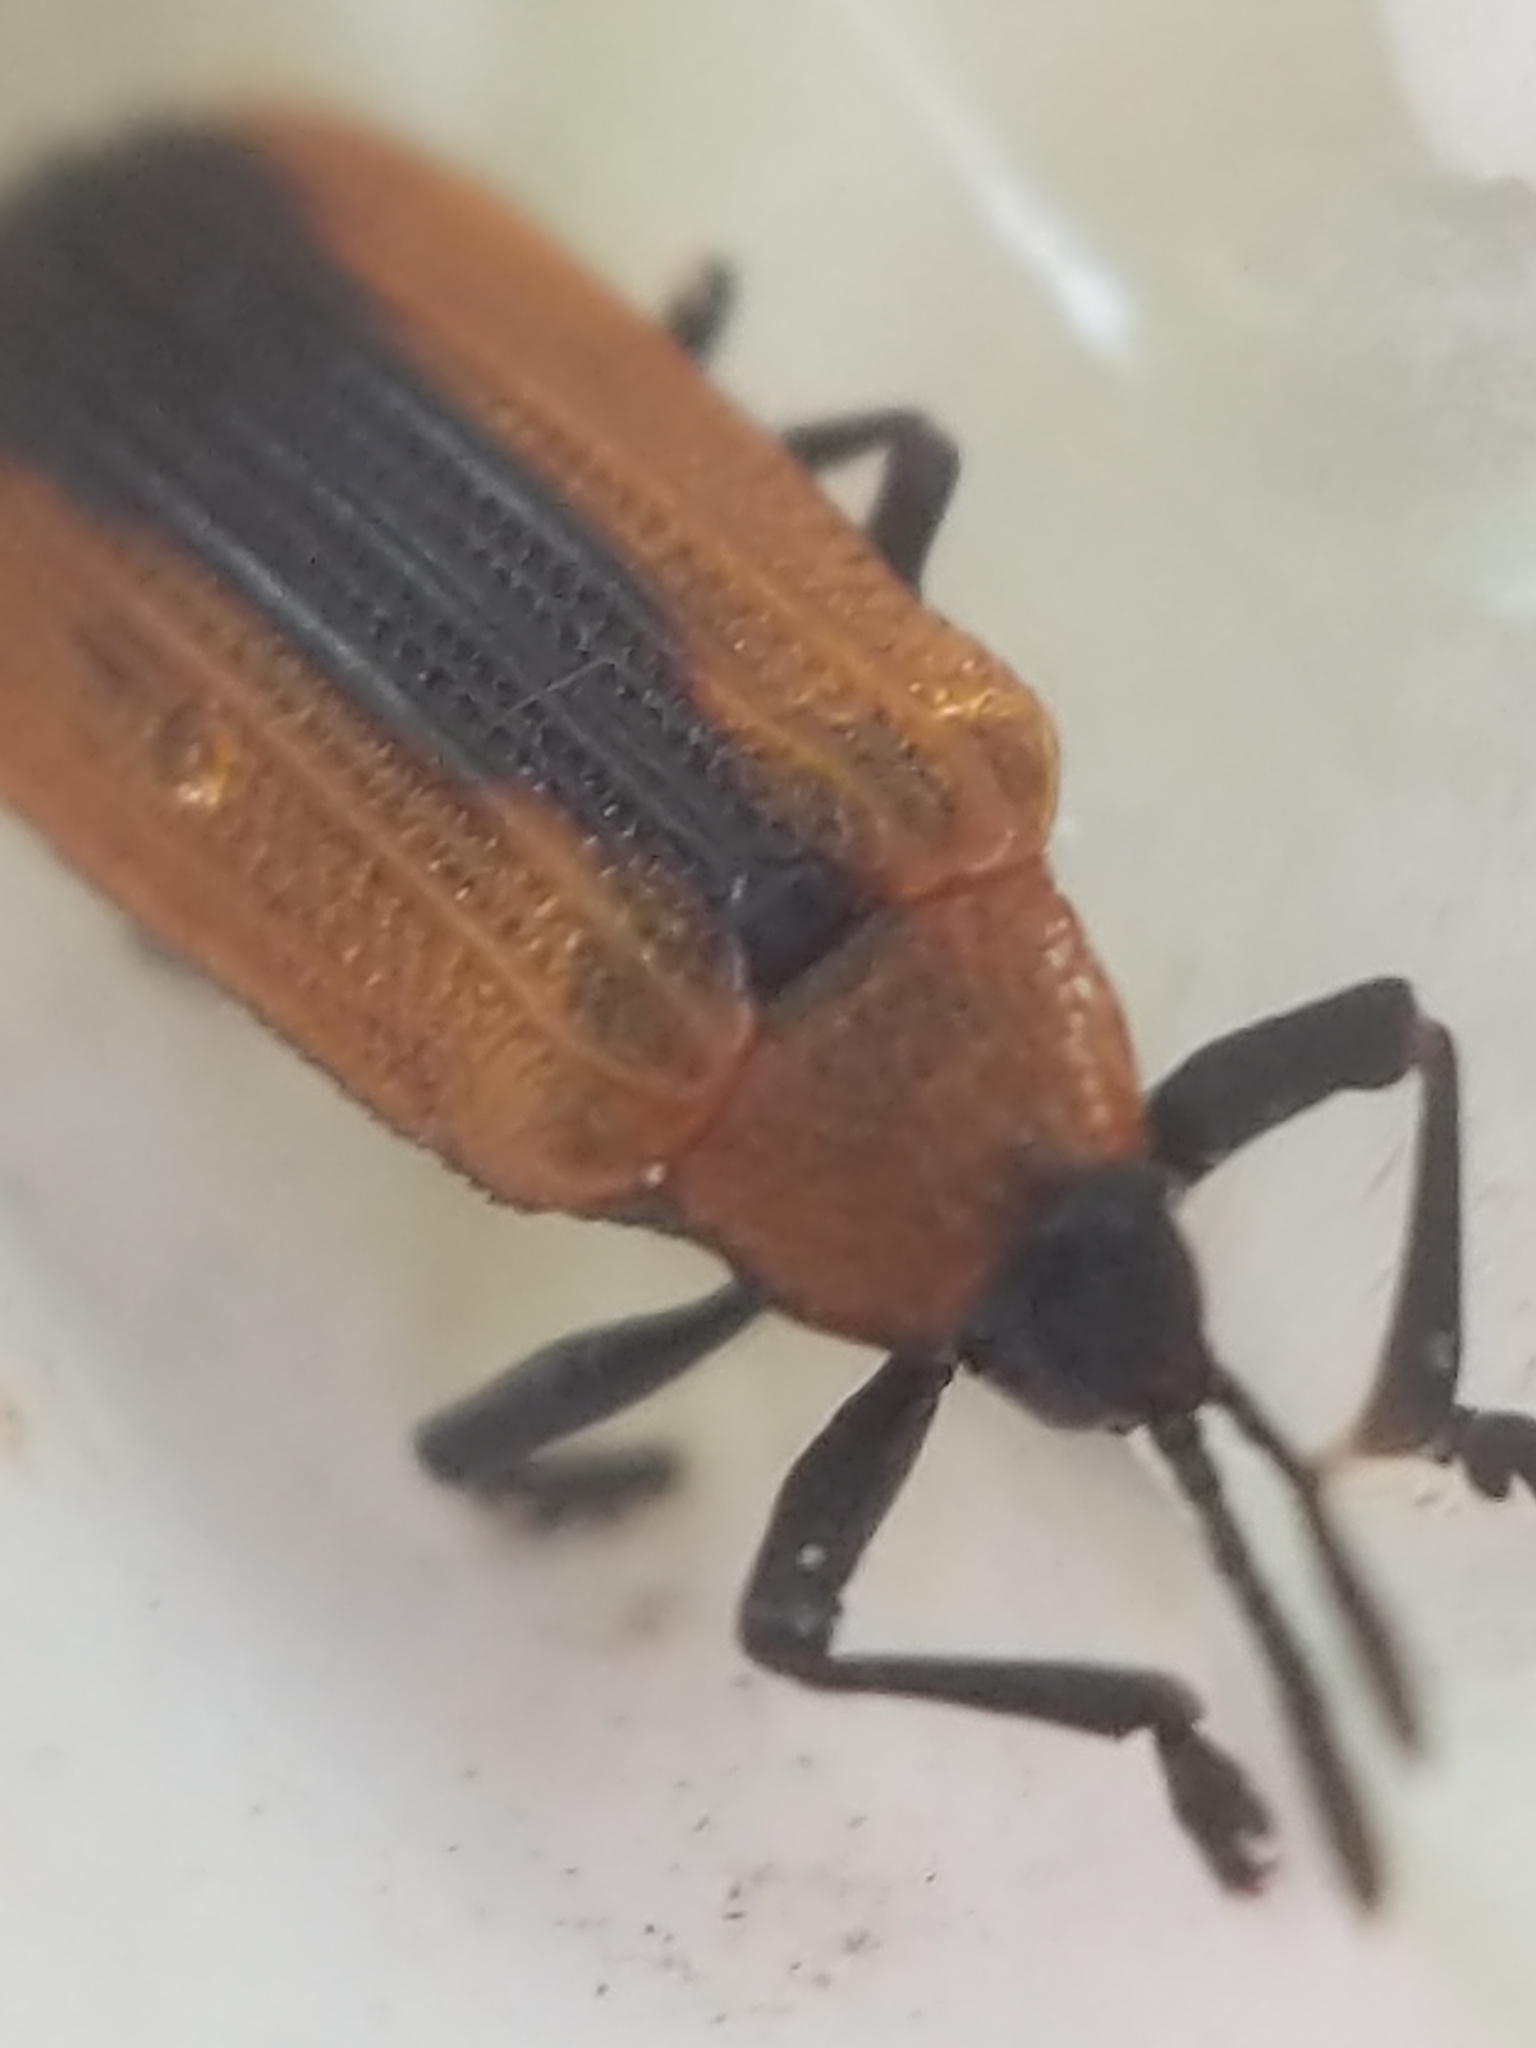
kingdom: Animalia
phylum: Arthropoda
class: Insecta
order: Coleoptera
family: Chrysomelidae
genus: Odontota
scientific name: Odontota dorsalis
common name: Locust leaf-miner beetle
